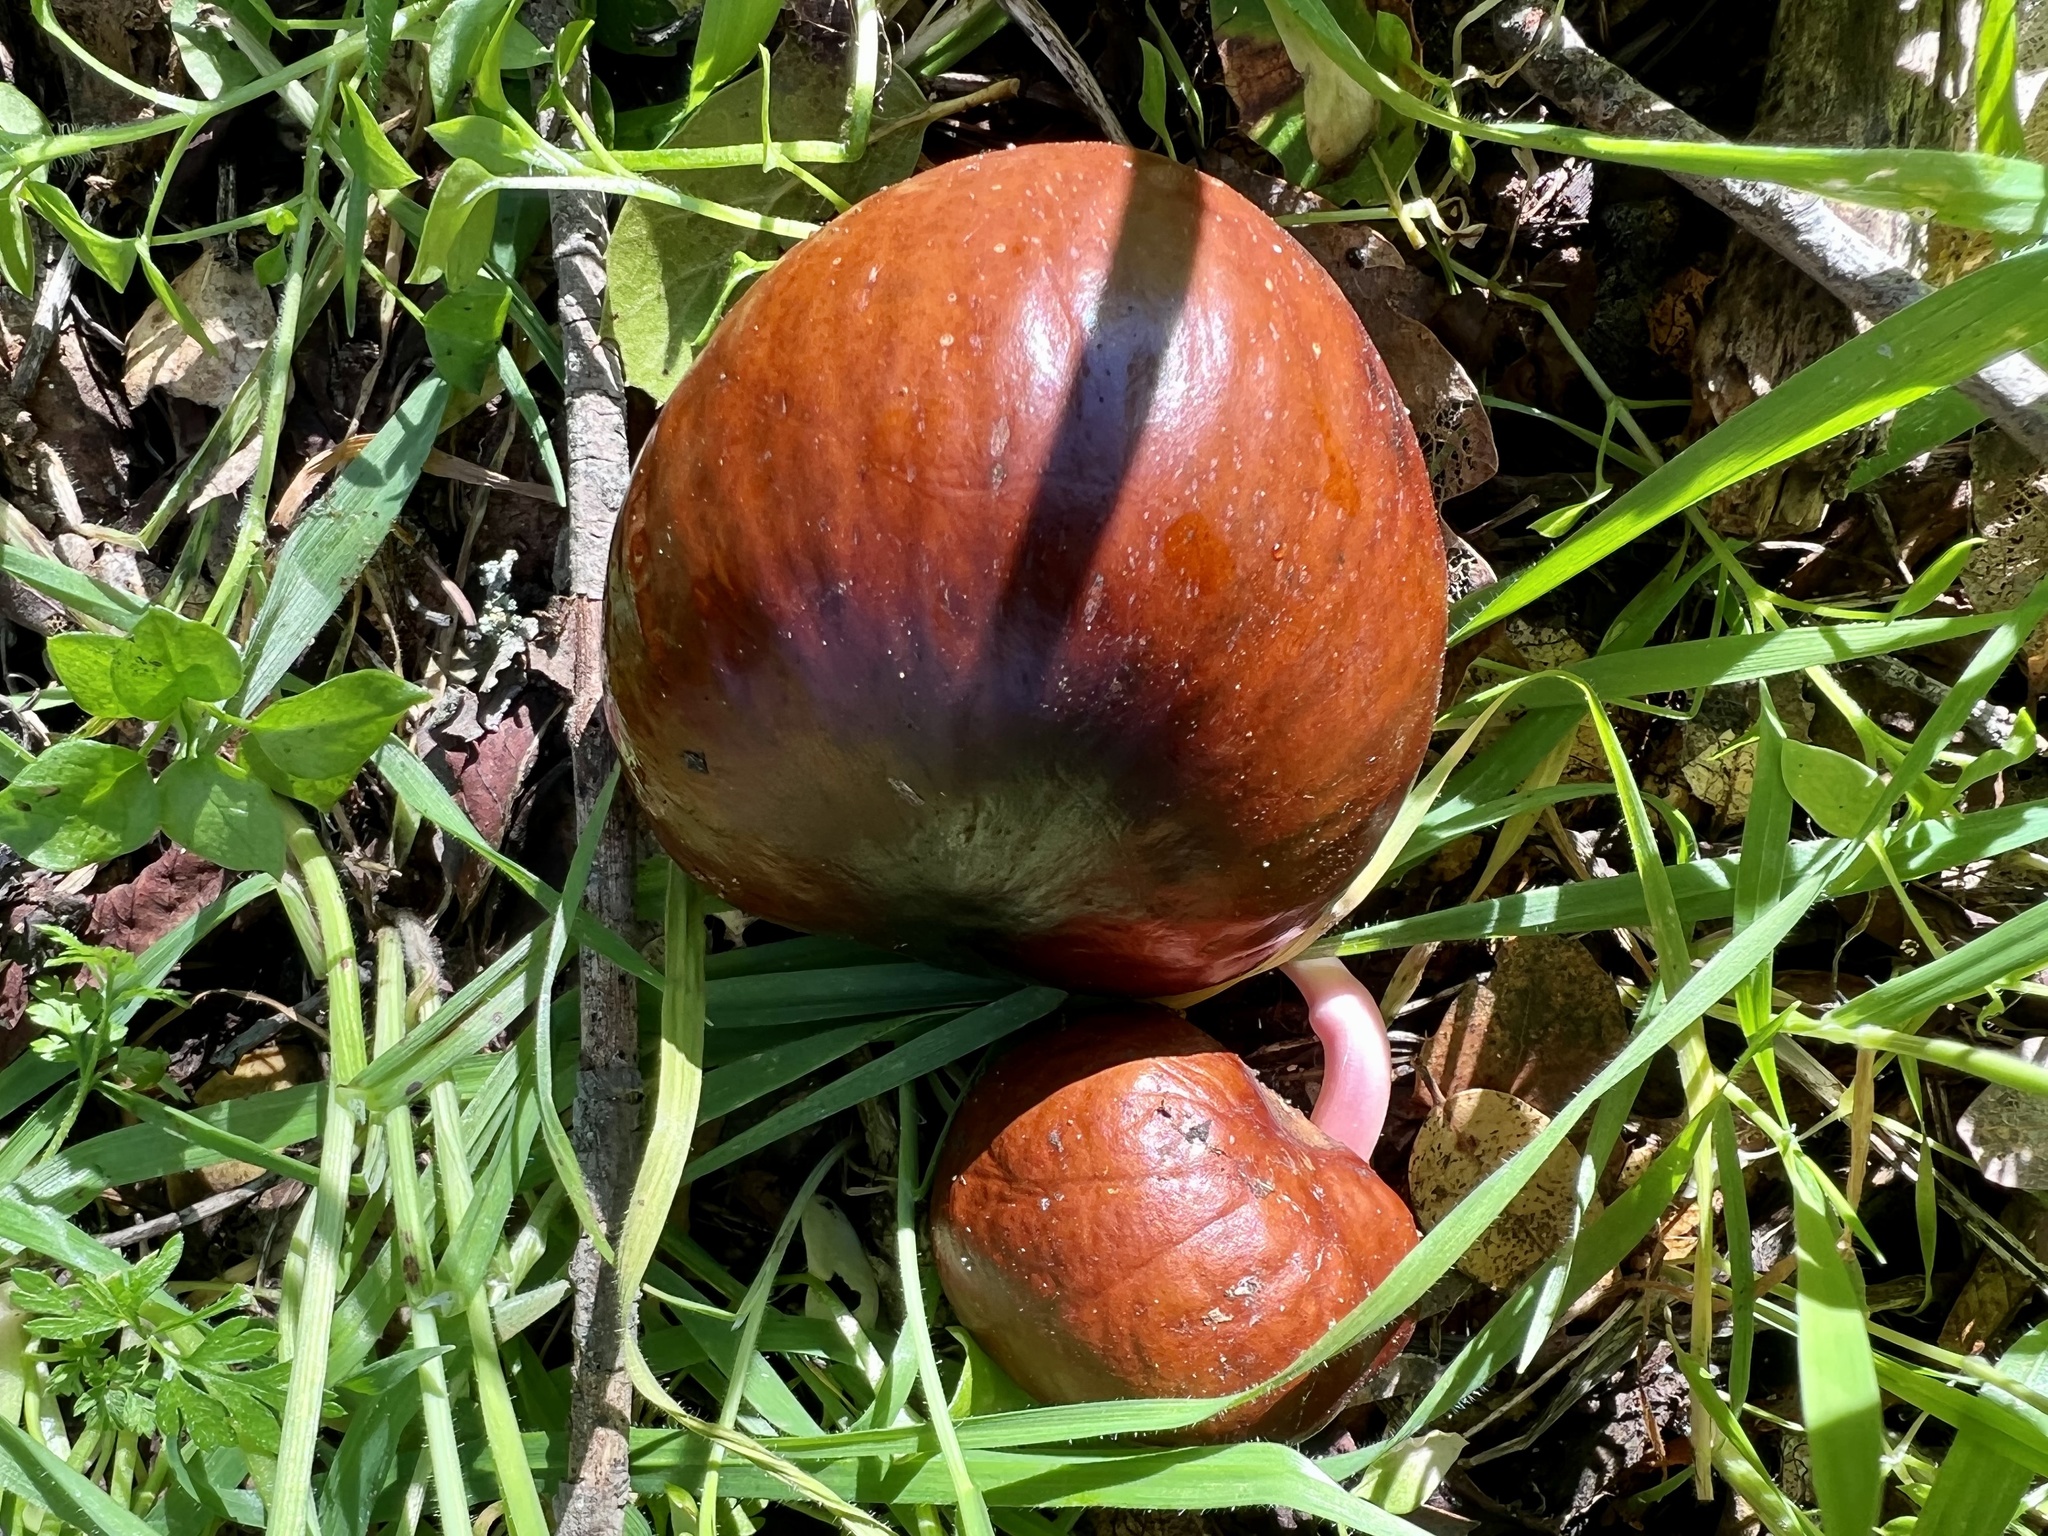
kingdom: Plantae
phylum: Tracheophyta
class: Magnoliopsida
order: Sapindales
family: Sapindaceae
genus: Aesculus
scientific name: Aesculus californica
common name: California buckeye
